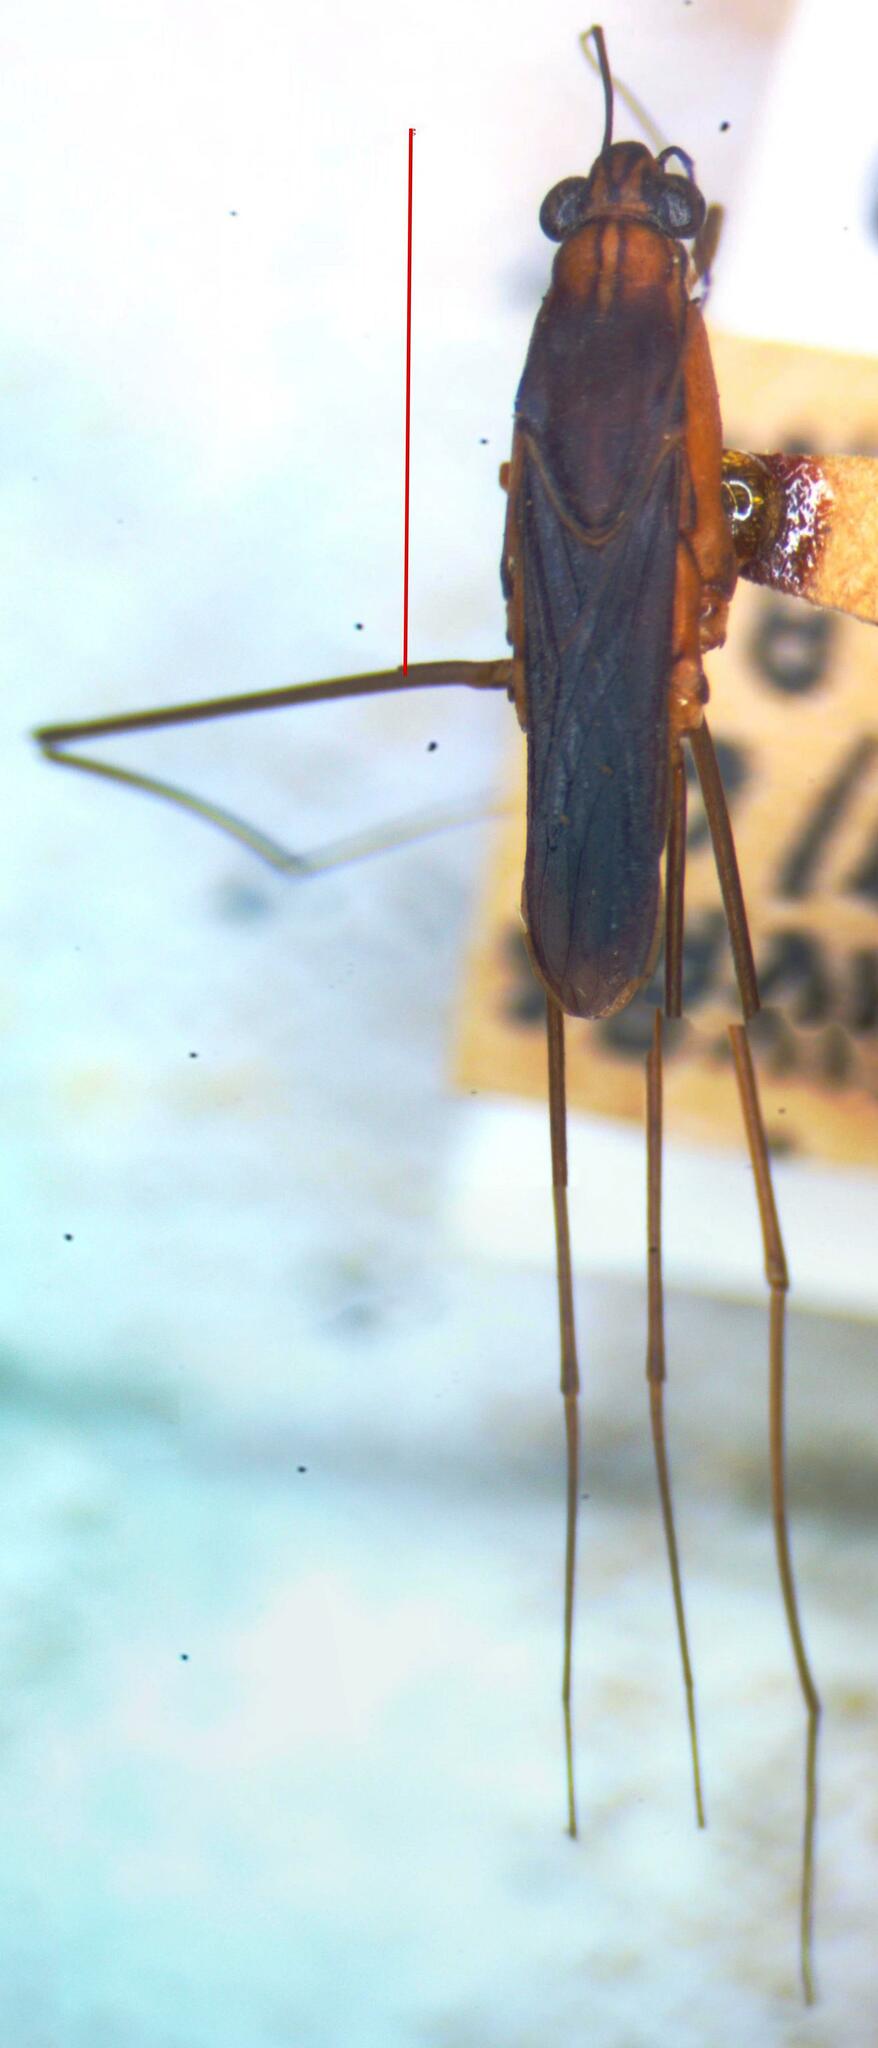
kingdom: Animalia
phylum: Arthropoda
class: Insecta
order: Hemiptera
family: Gerridae
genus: Tachygerris
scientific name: Tachygerris quadrilineatus
